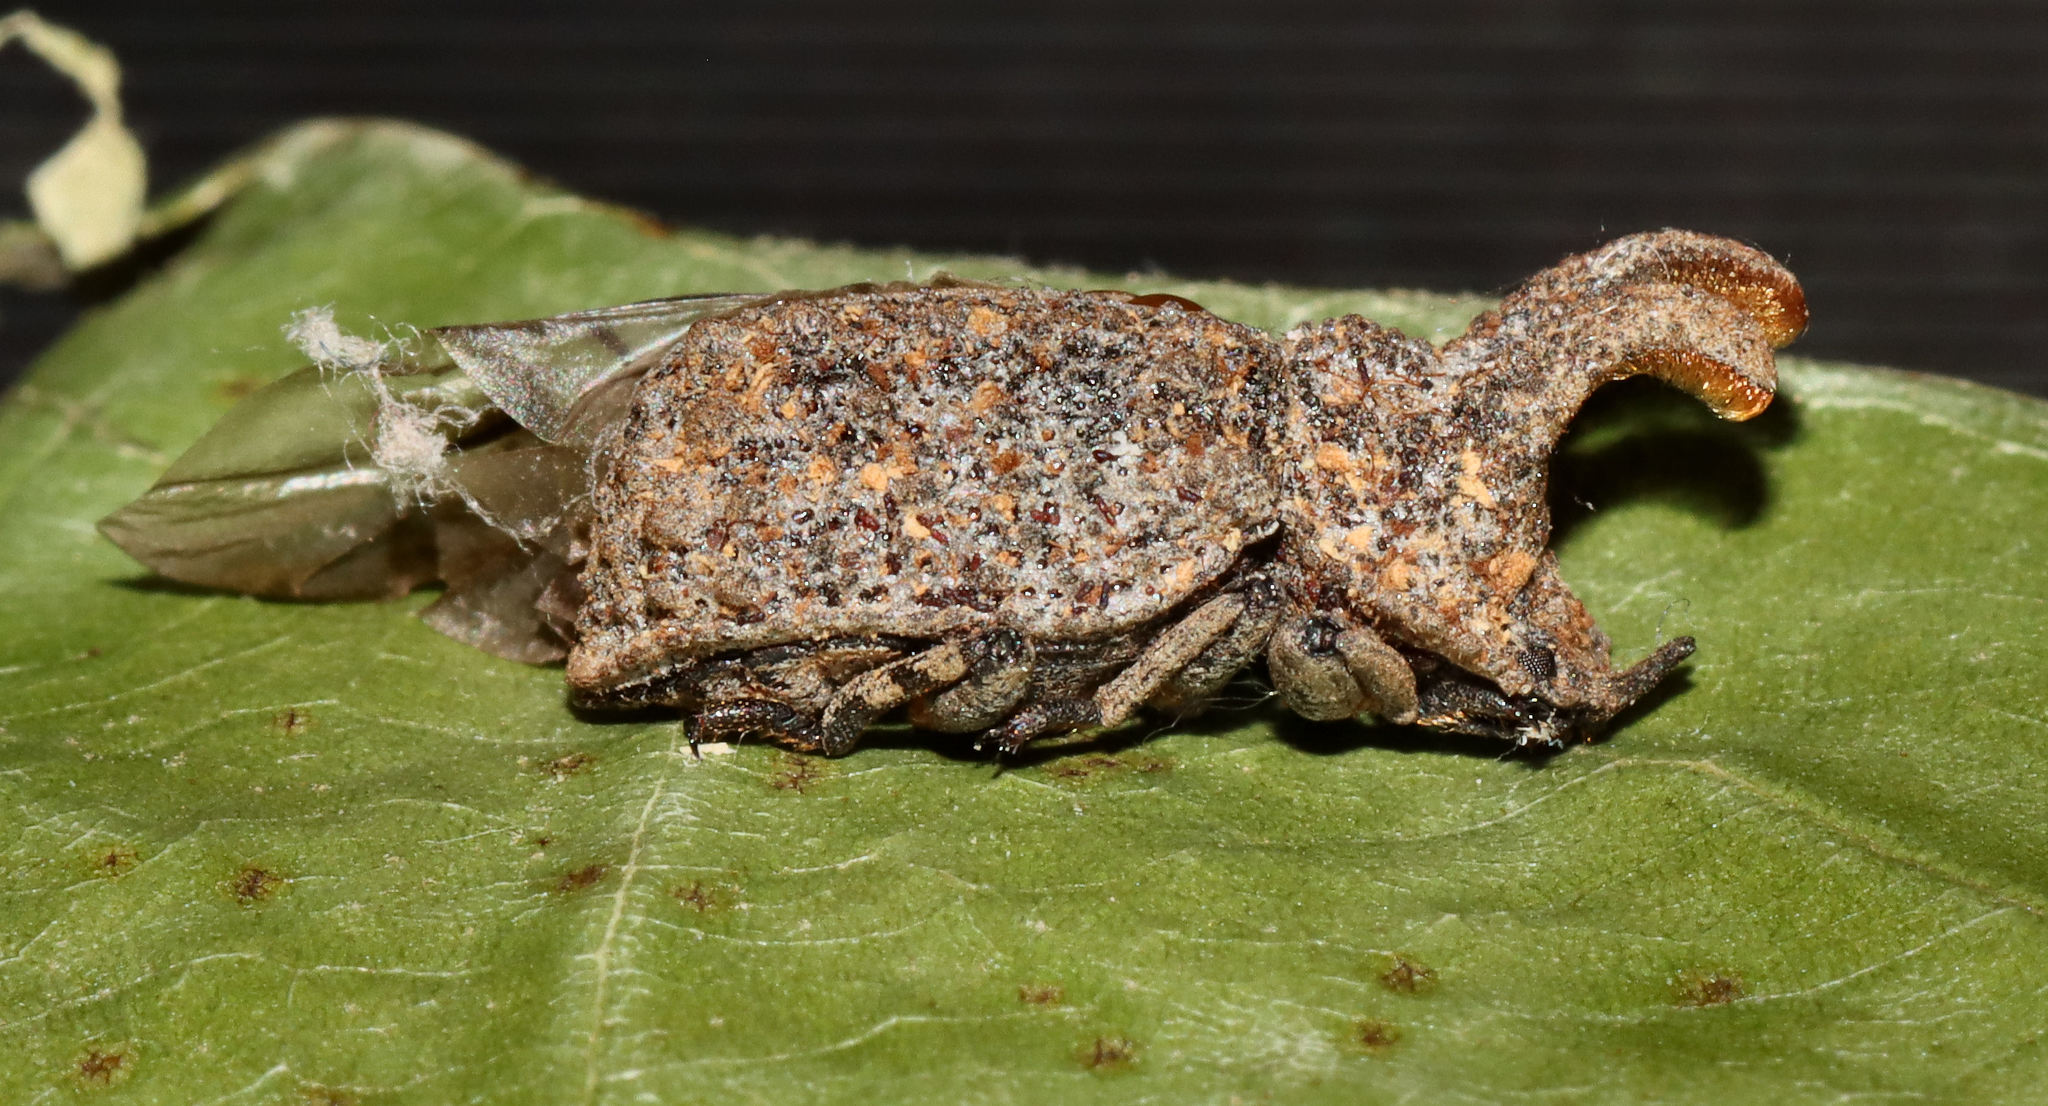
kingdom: Animalia
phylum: Arthropoda
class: Insecta
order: Coleoptera
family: Tenebrionidae
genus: Gnatocerus
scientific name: Gnatocerus cornutus
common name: Broad-horned flour beetle
